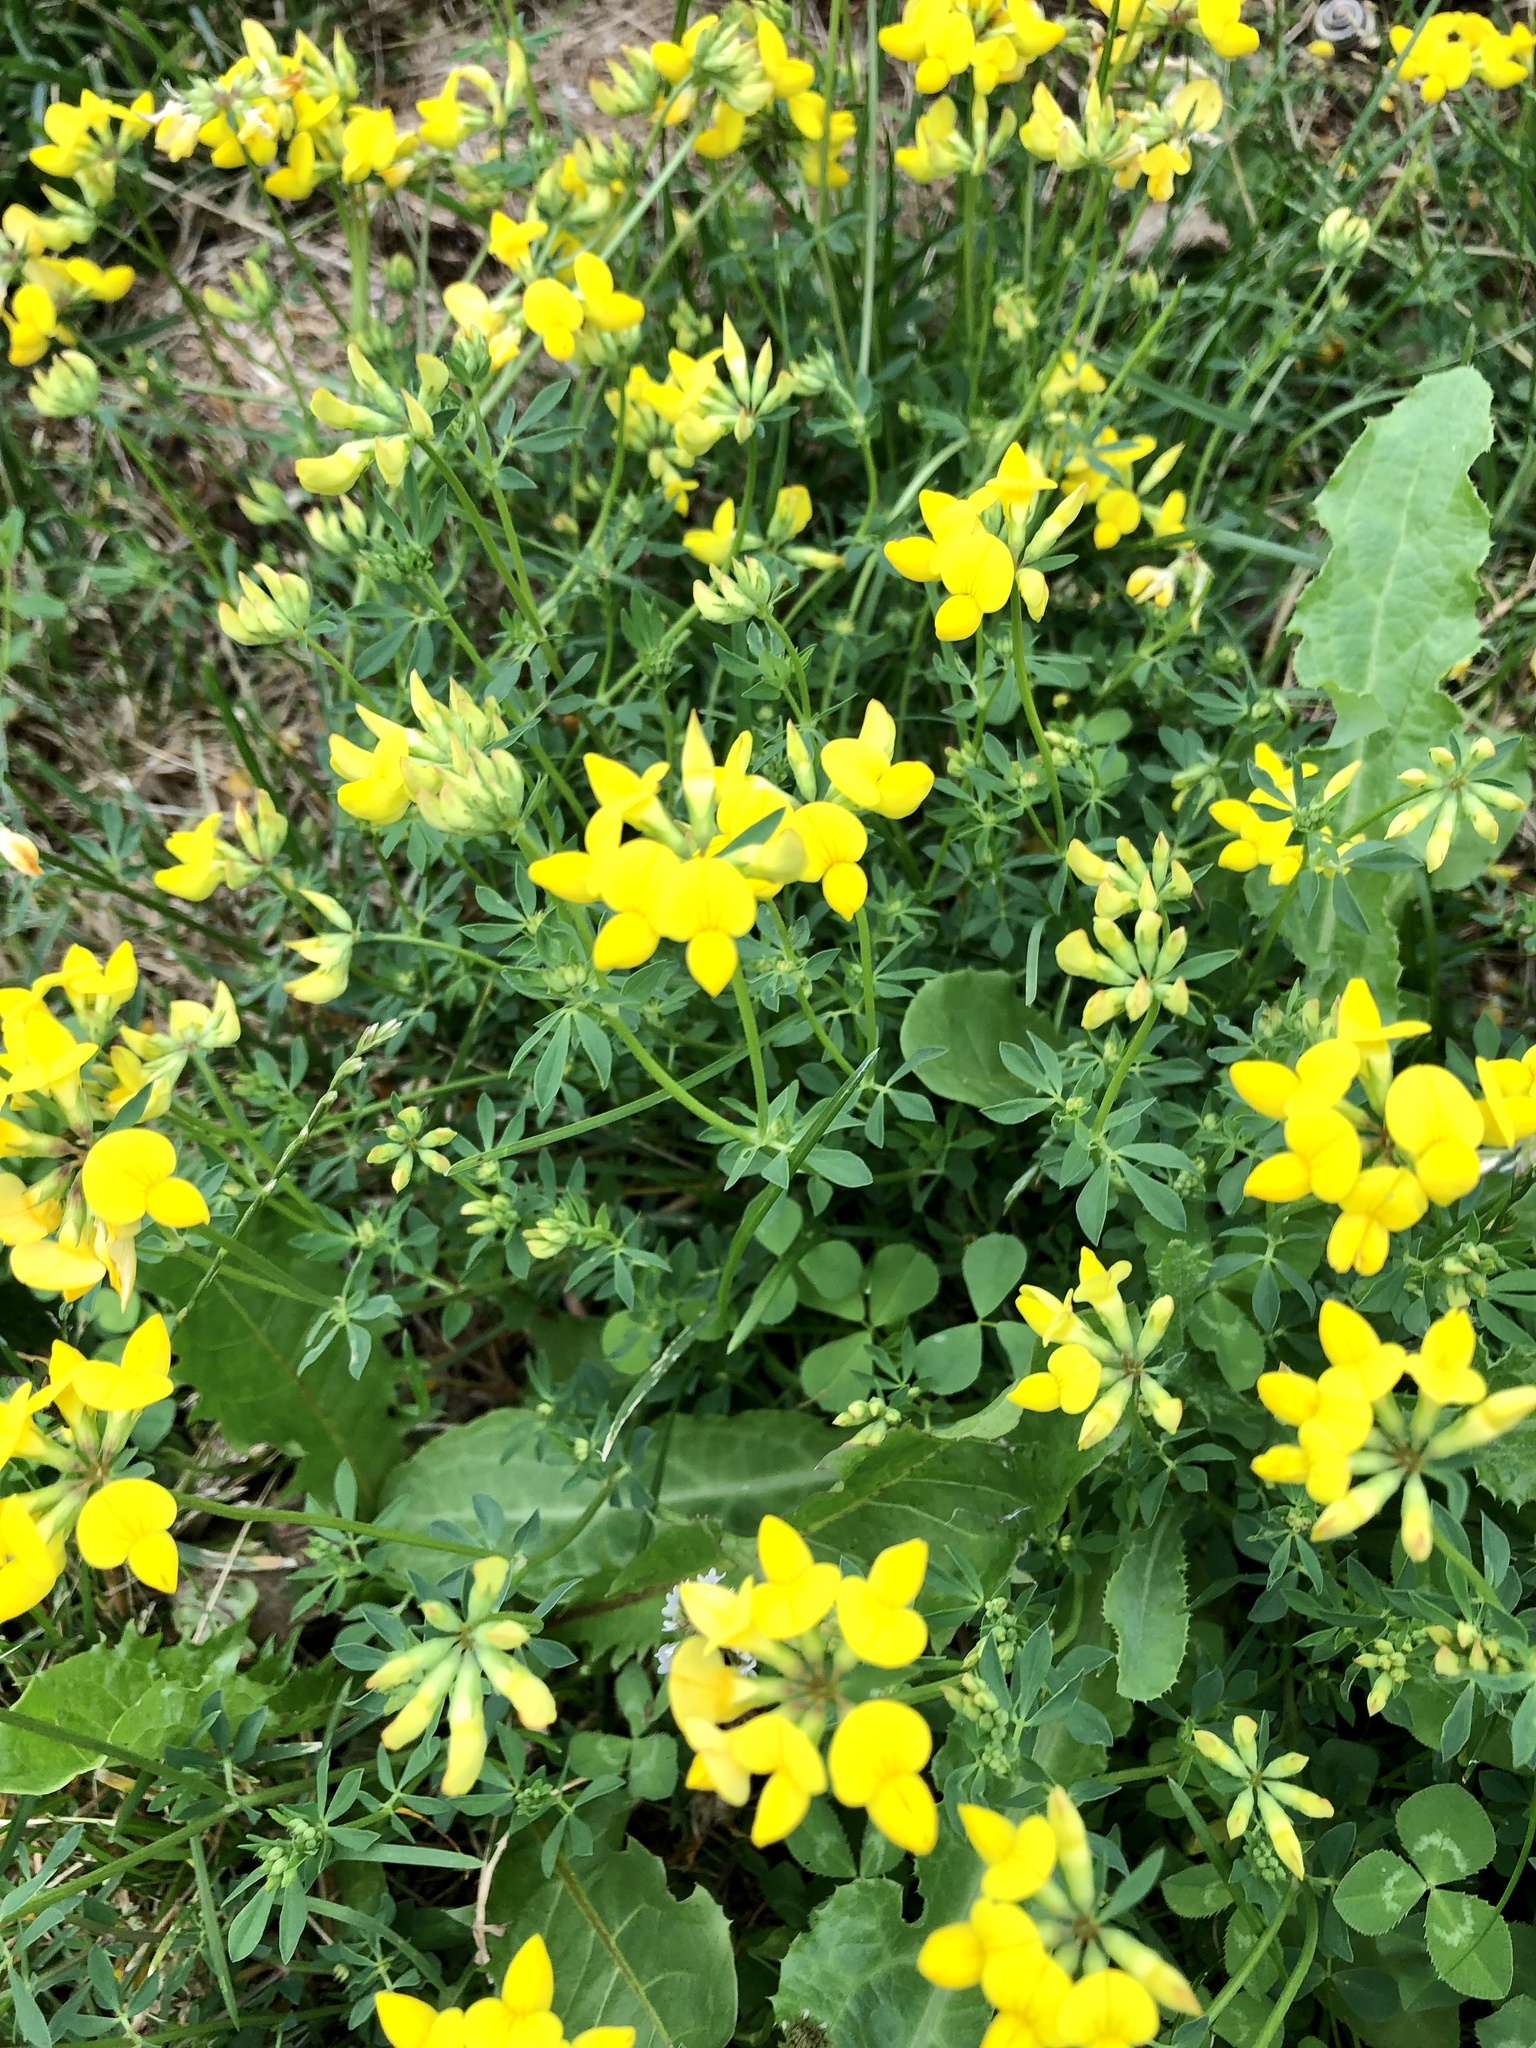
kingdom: Plantae
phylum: Tracheophyta
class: Magnoliopsida
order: Fabales
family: Fabaceae
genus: Lotus
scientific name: Lotus corniculatus
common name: Common bird's-foot-trefoil
